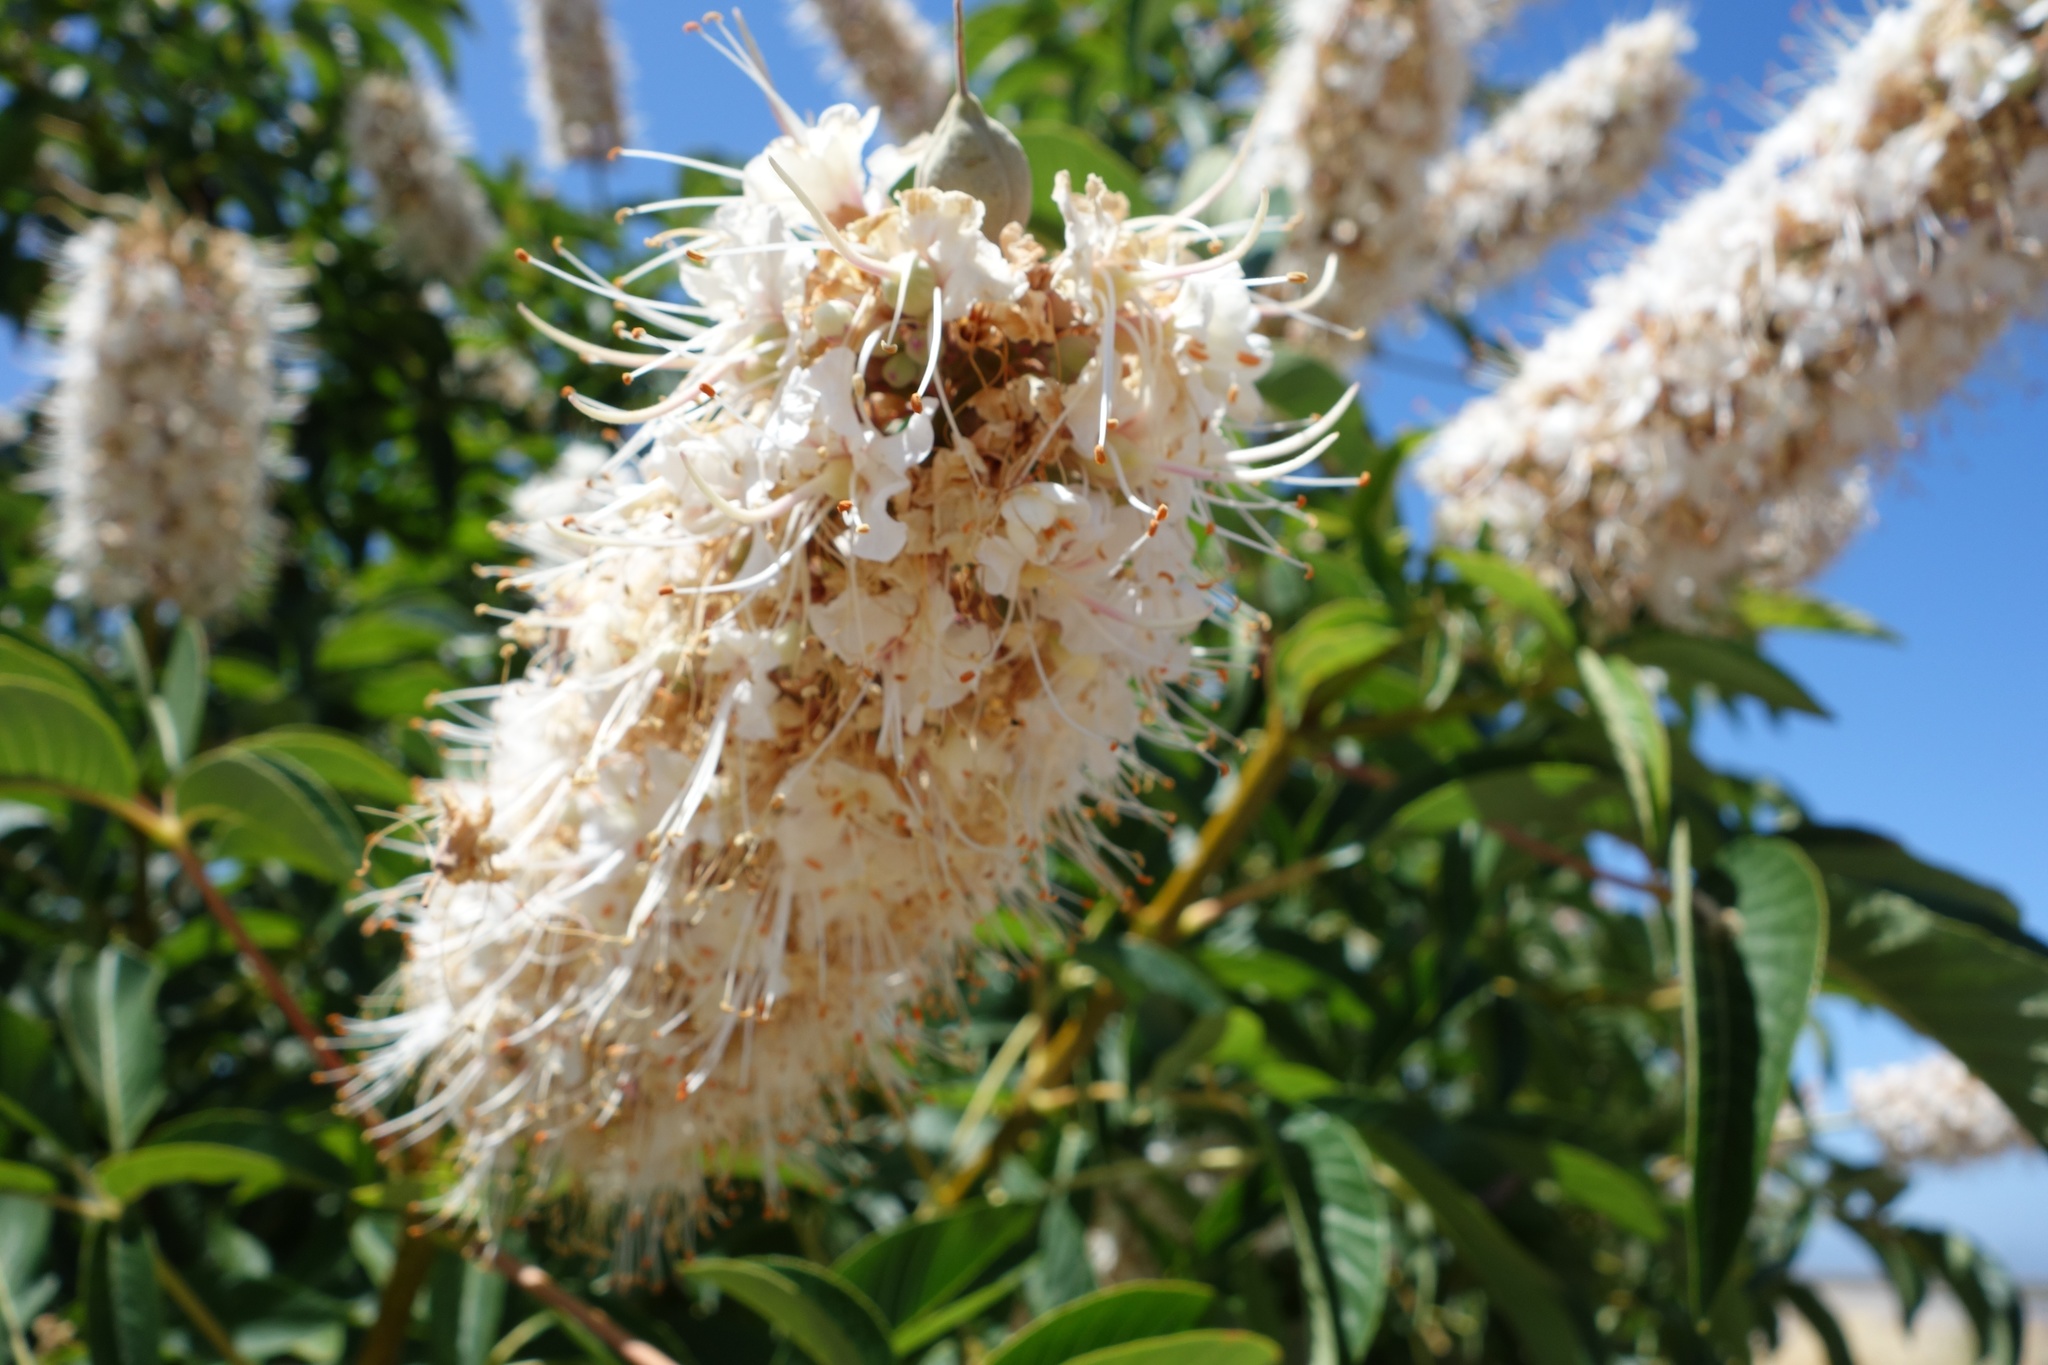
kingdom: Plantae
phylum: Tracheophyta
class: Magnoliopsida
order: Sapindales
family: Sapindaceae
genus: Aesculus
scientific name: Aesculus californica
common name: California buckeye
